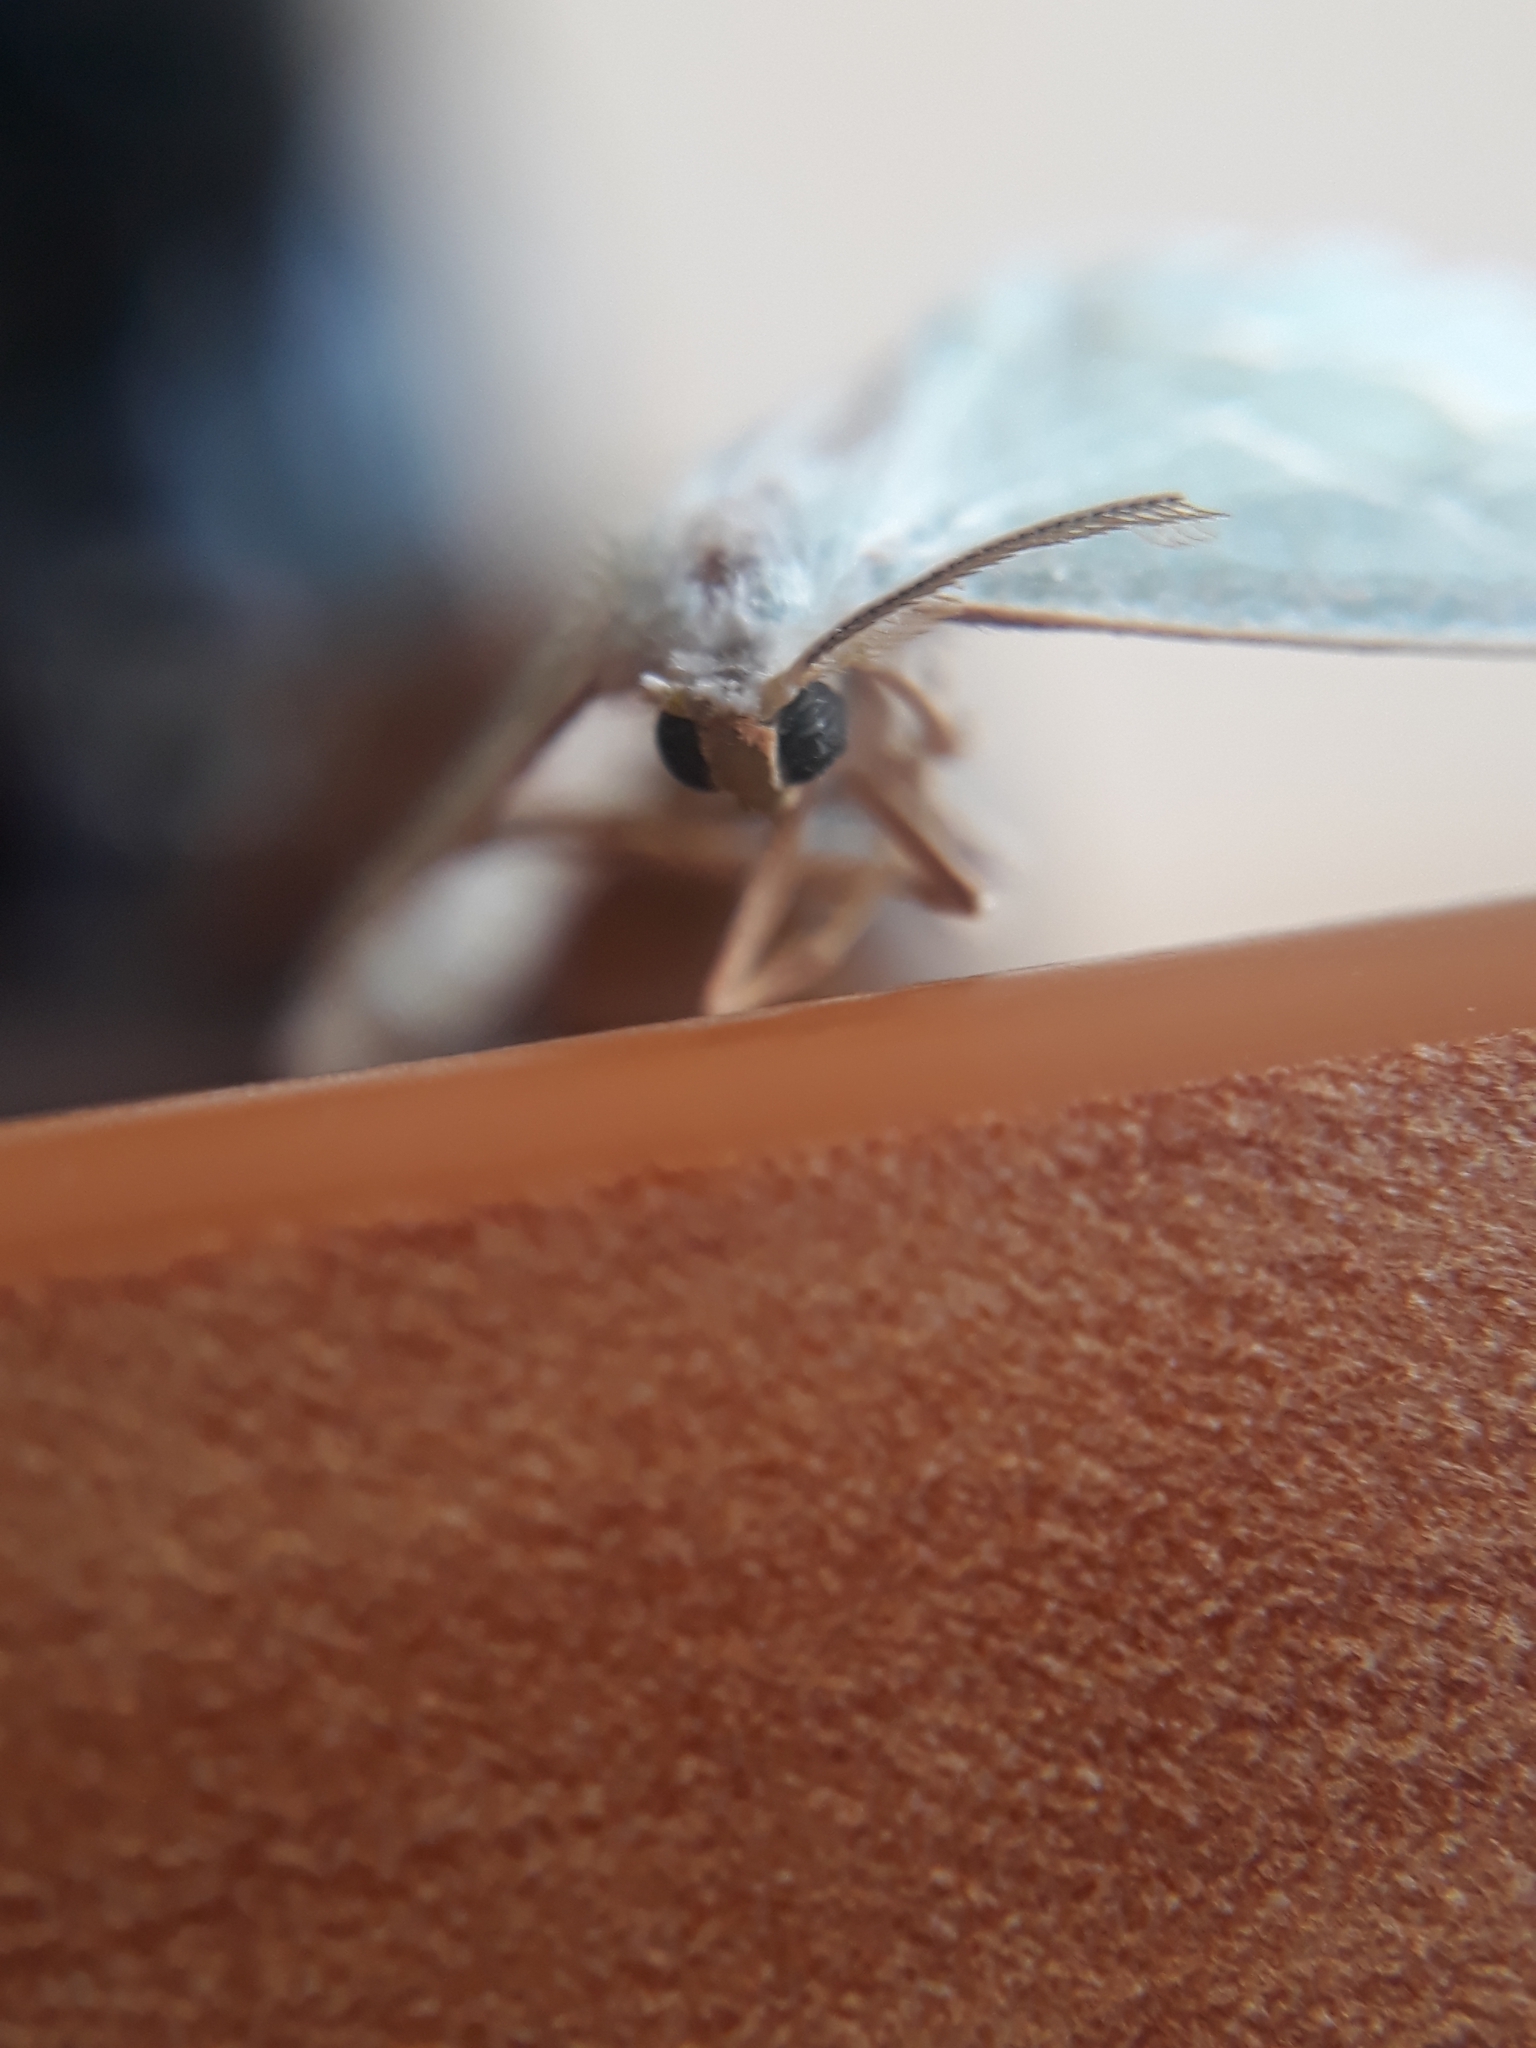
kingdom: Animalia
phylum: Arthropoda
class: Insecta
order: Lepidoptera
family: Geometridae
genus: Campaea
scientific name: Campaea margaritaria
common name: Light emerald
